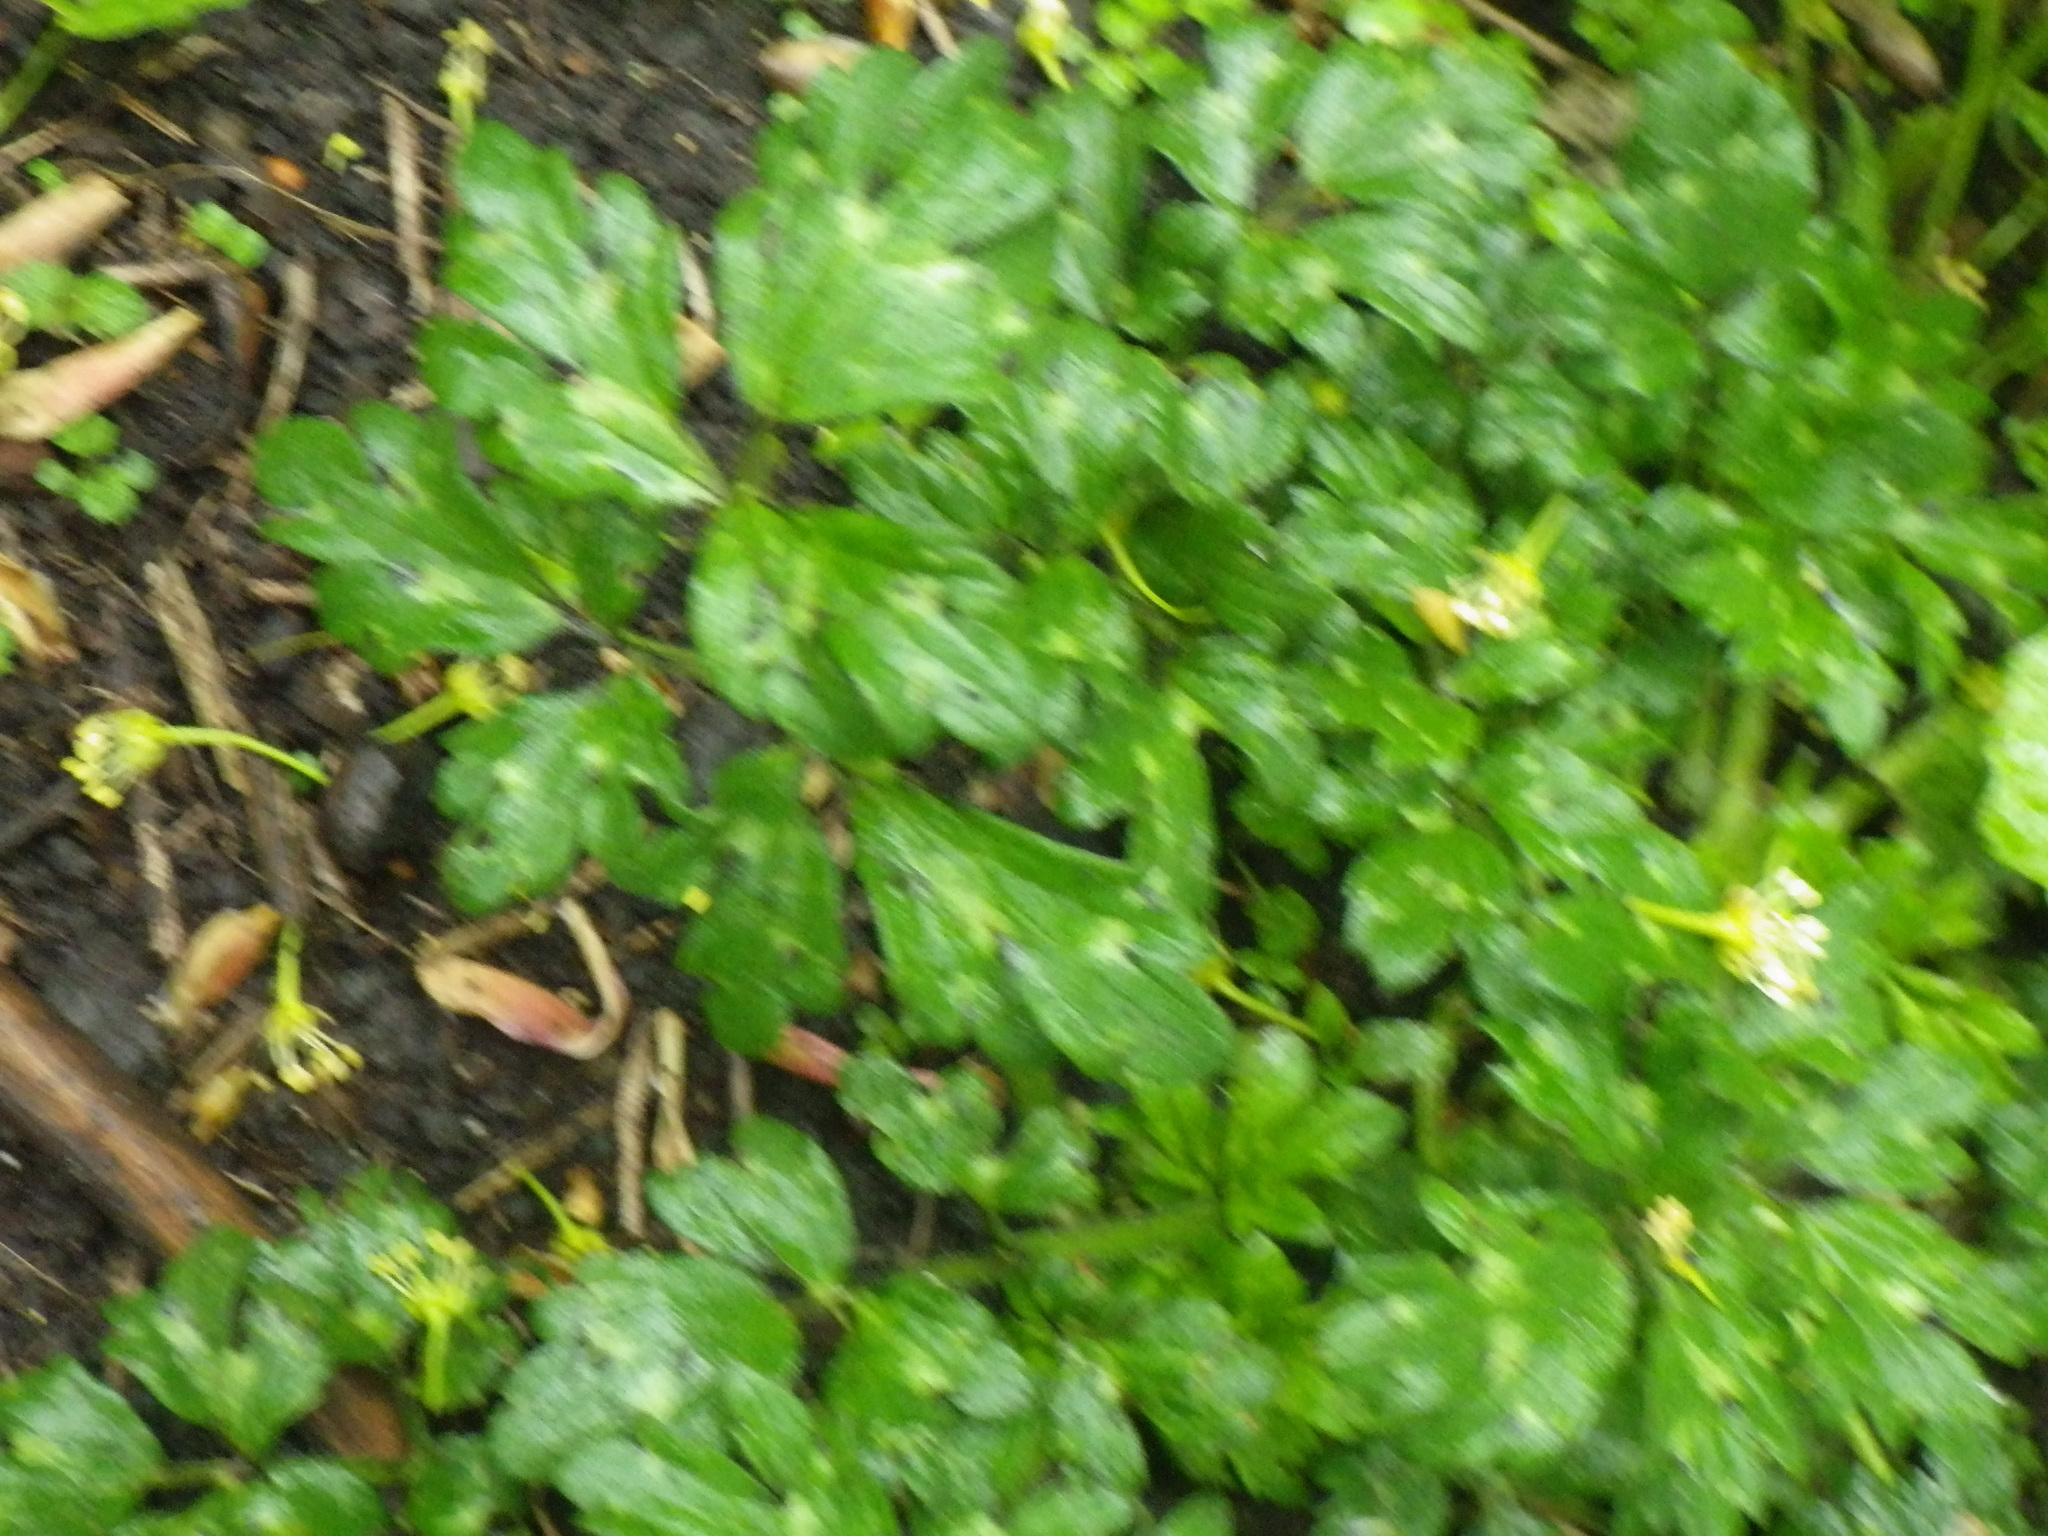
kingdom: Plantae
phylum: Tracheophyta
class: Magnoliopsida
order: Ranunculales
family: Ranunculaceae
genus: Ranunculus
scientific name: Ranunculus repens
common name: Creeping buttercup
